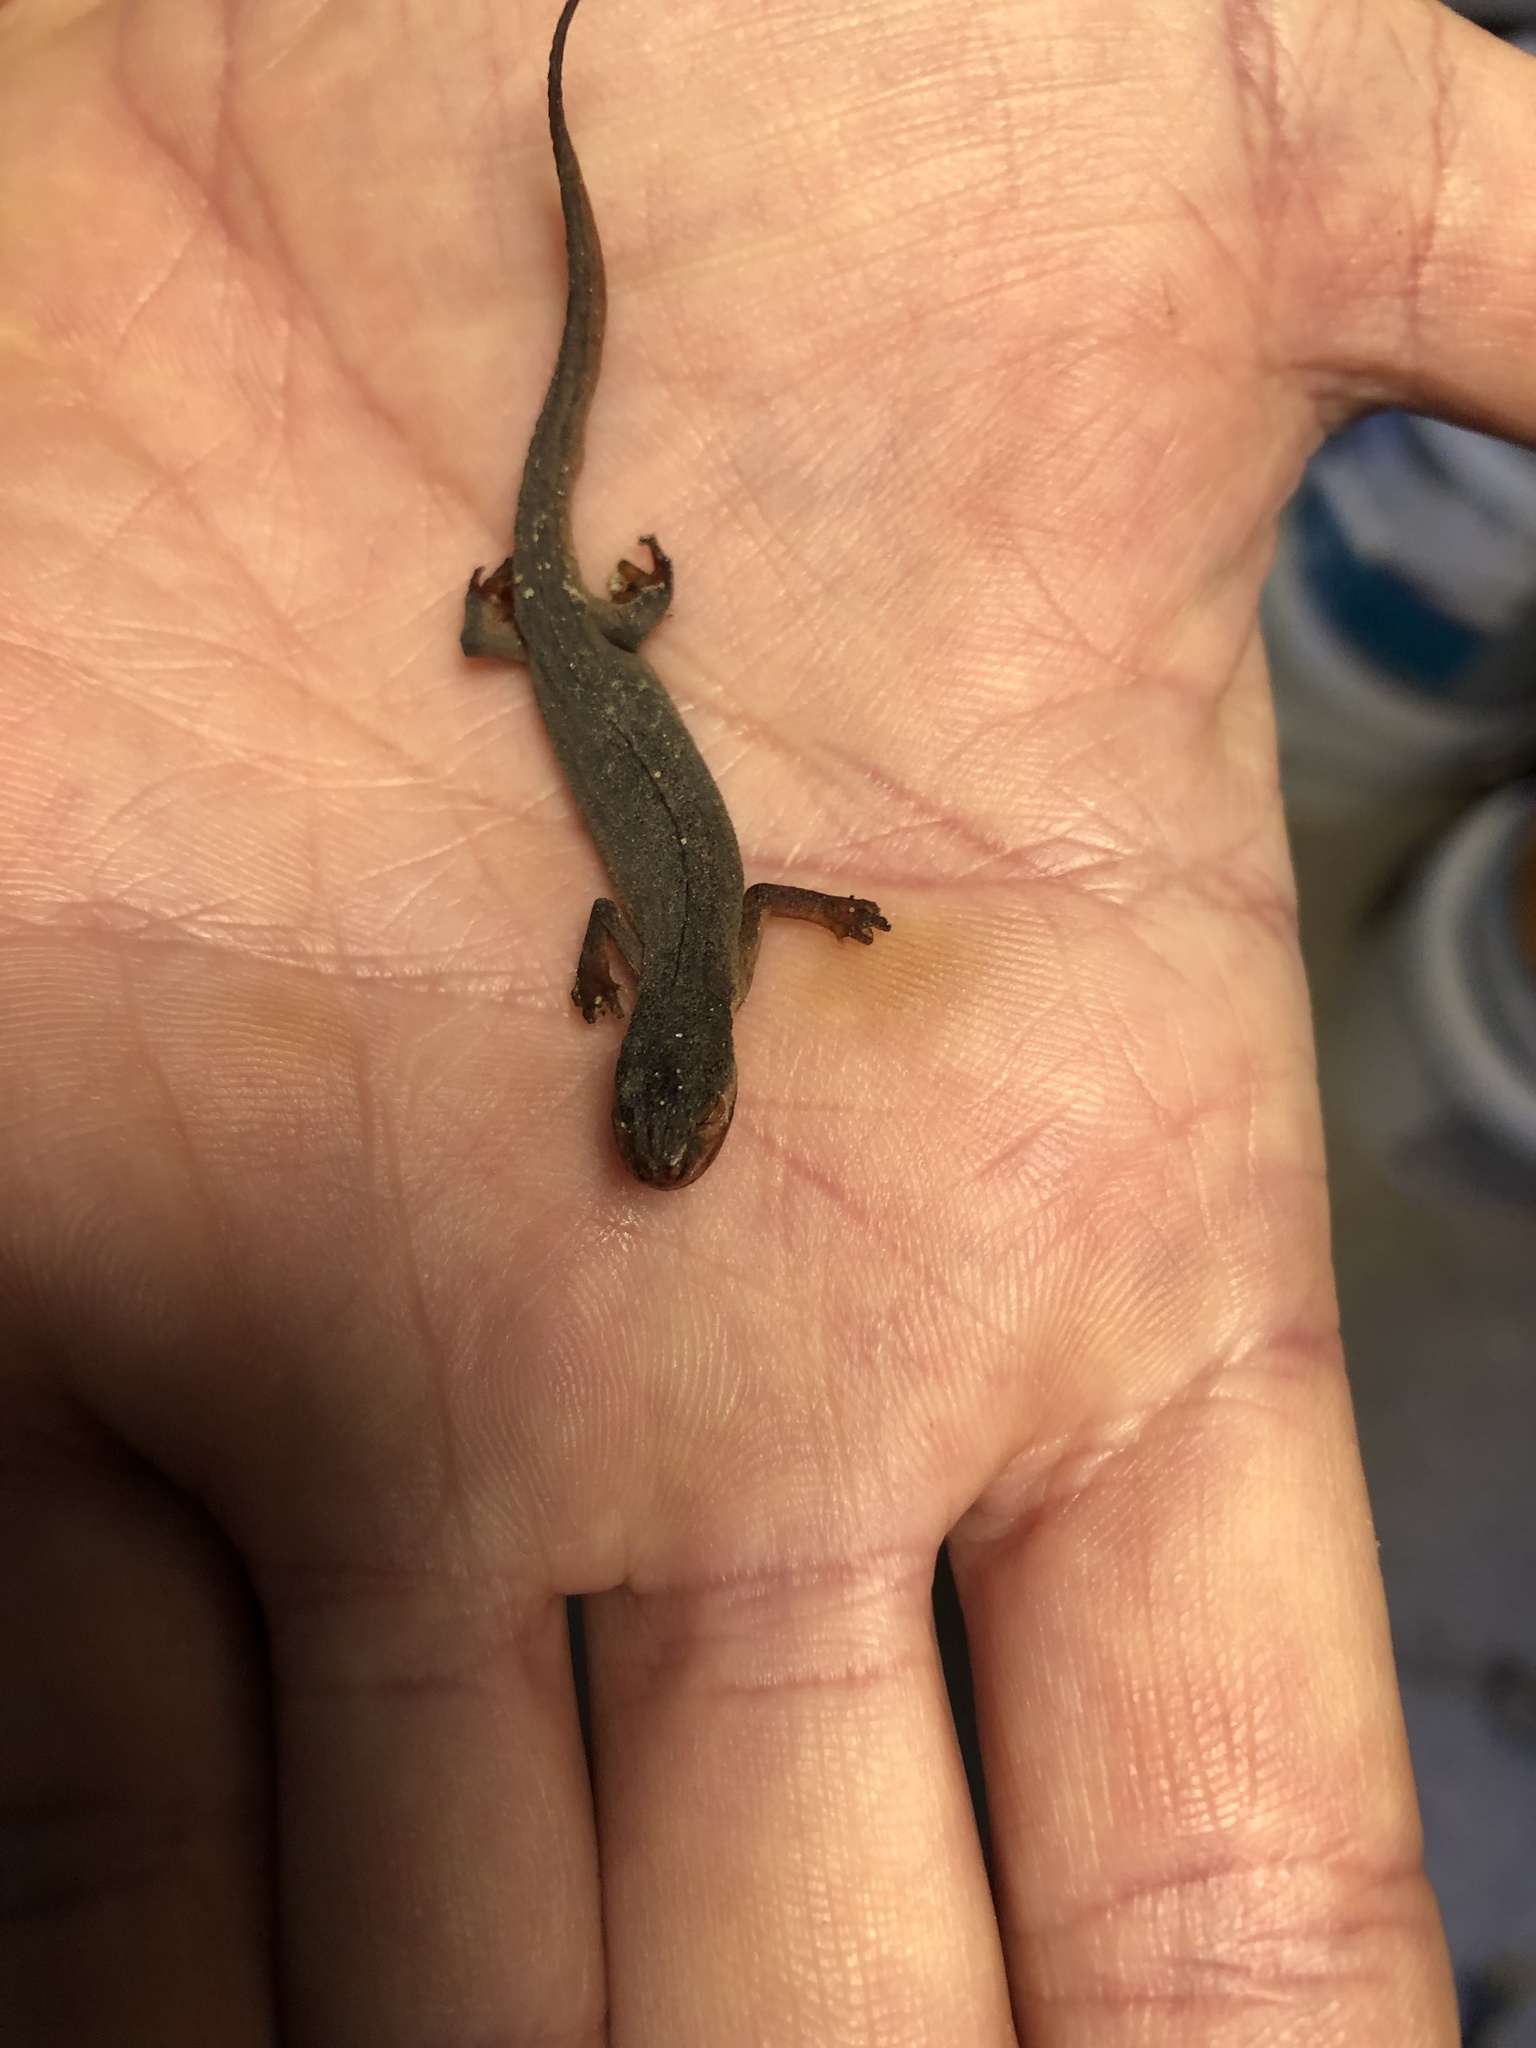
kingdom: Animalia
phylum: Chordata
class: Amphibia
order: Caudata
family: Salamandridae
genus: Lissotriton
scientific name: Lissotriton vulgaris
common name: Smooth newt
